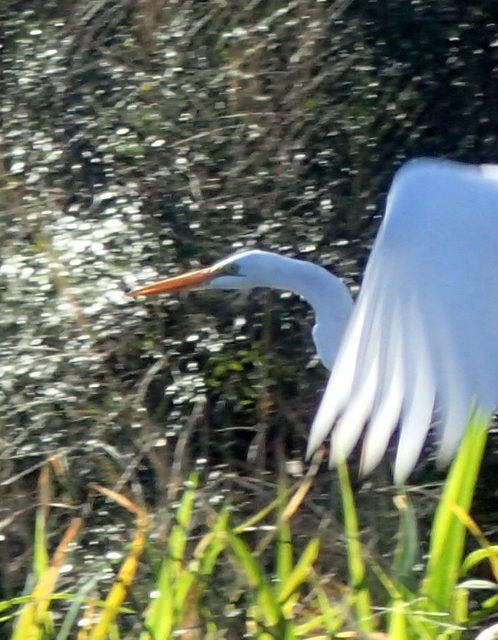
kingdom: Animalia
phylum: Chordata
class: Aves
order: Pelecaniformes
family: Ardeidae
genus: Ardea
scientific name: Ardea alba
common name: Great egret
